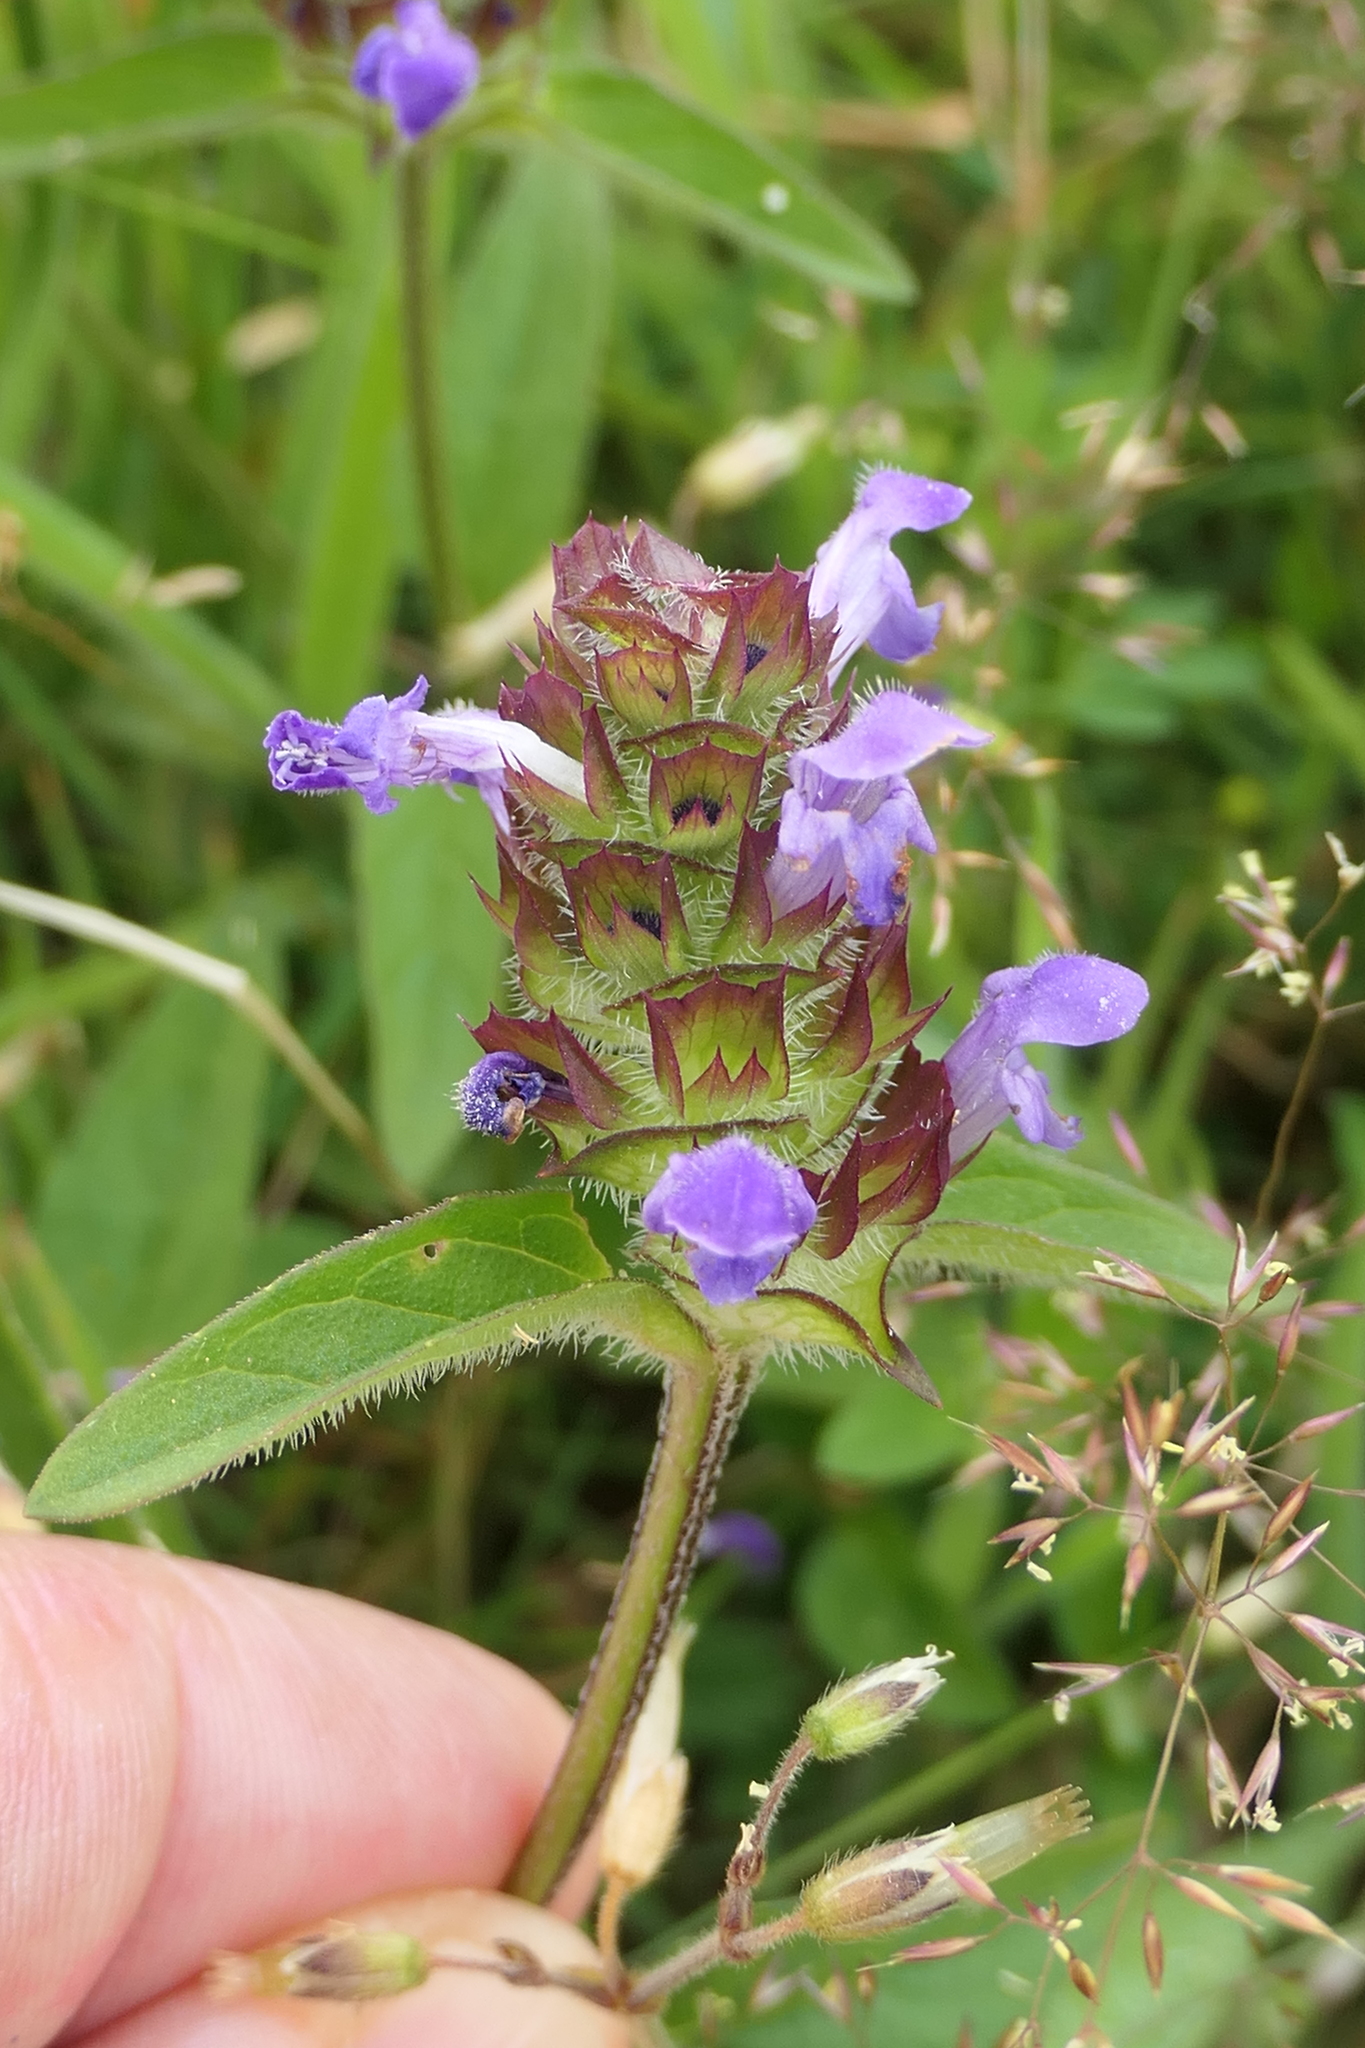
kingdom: Plantae
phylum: Tracheophyta
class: Magnoliopsida
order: Lamiales
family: Lamiaceae
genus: Prunella
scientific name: Prunella vulgaris
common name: Heal-all
